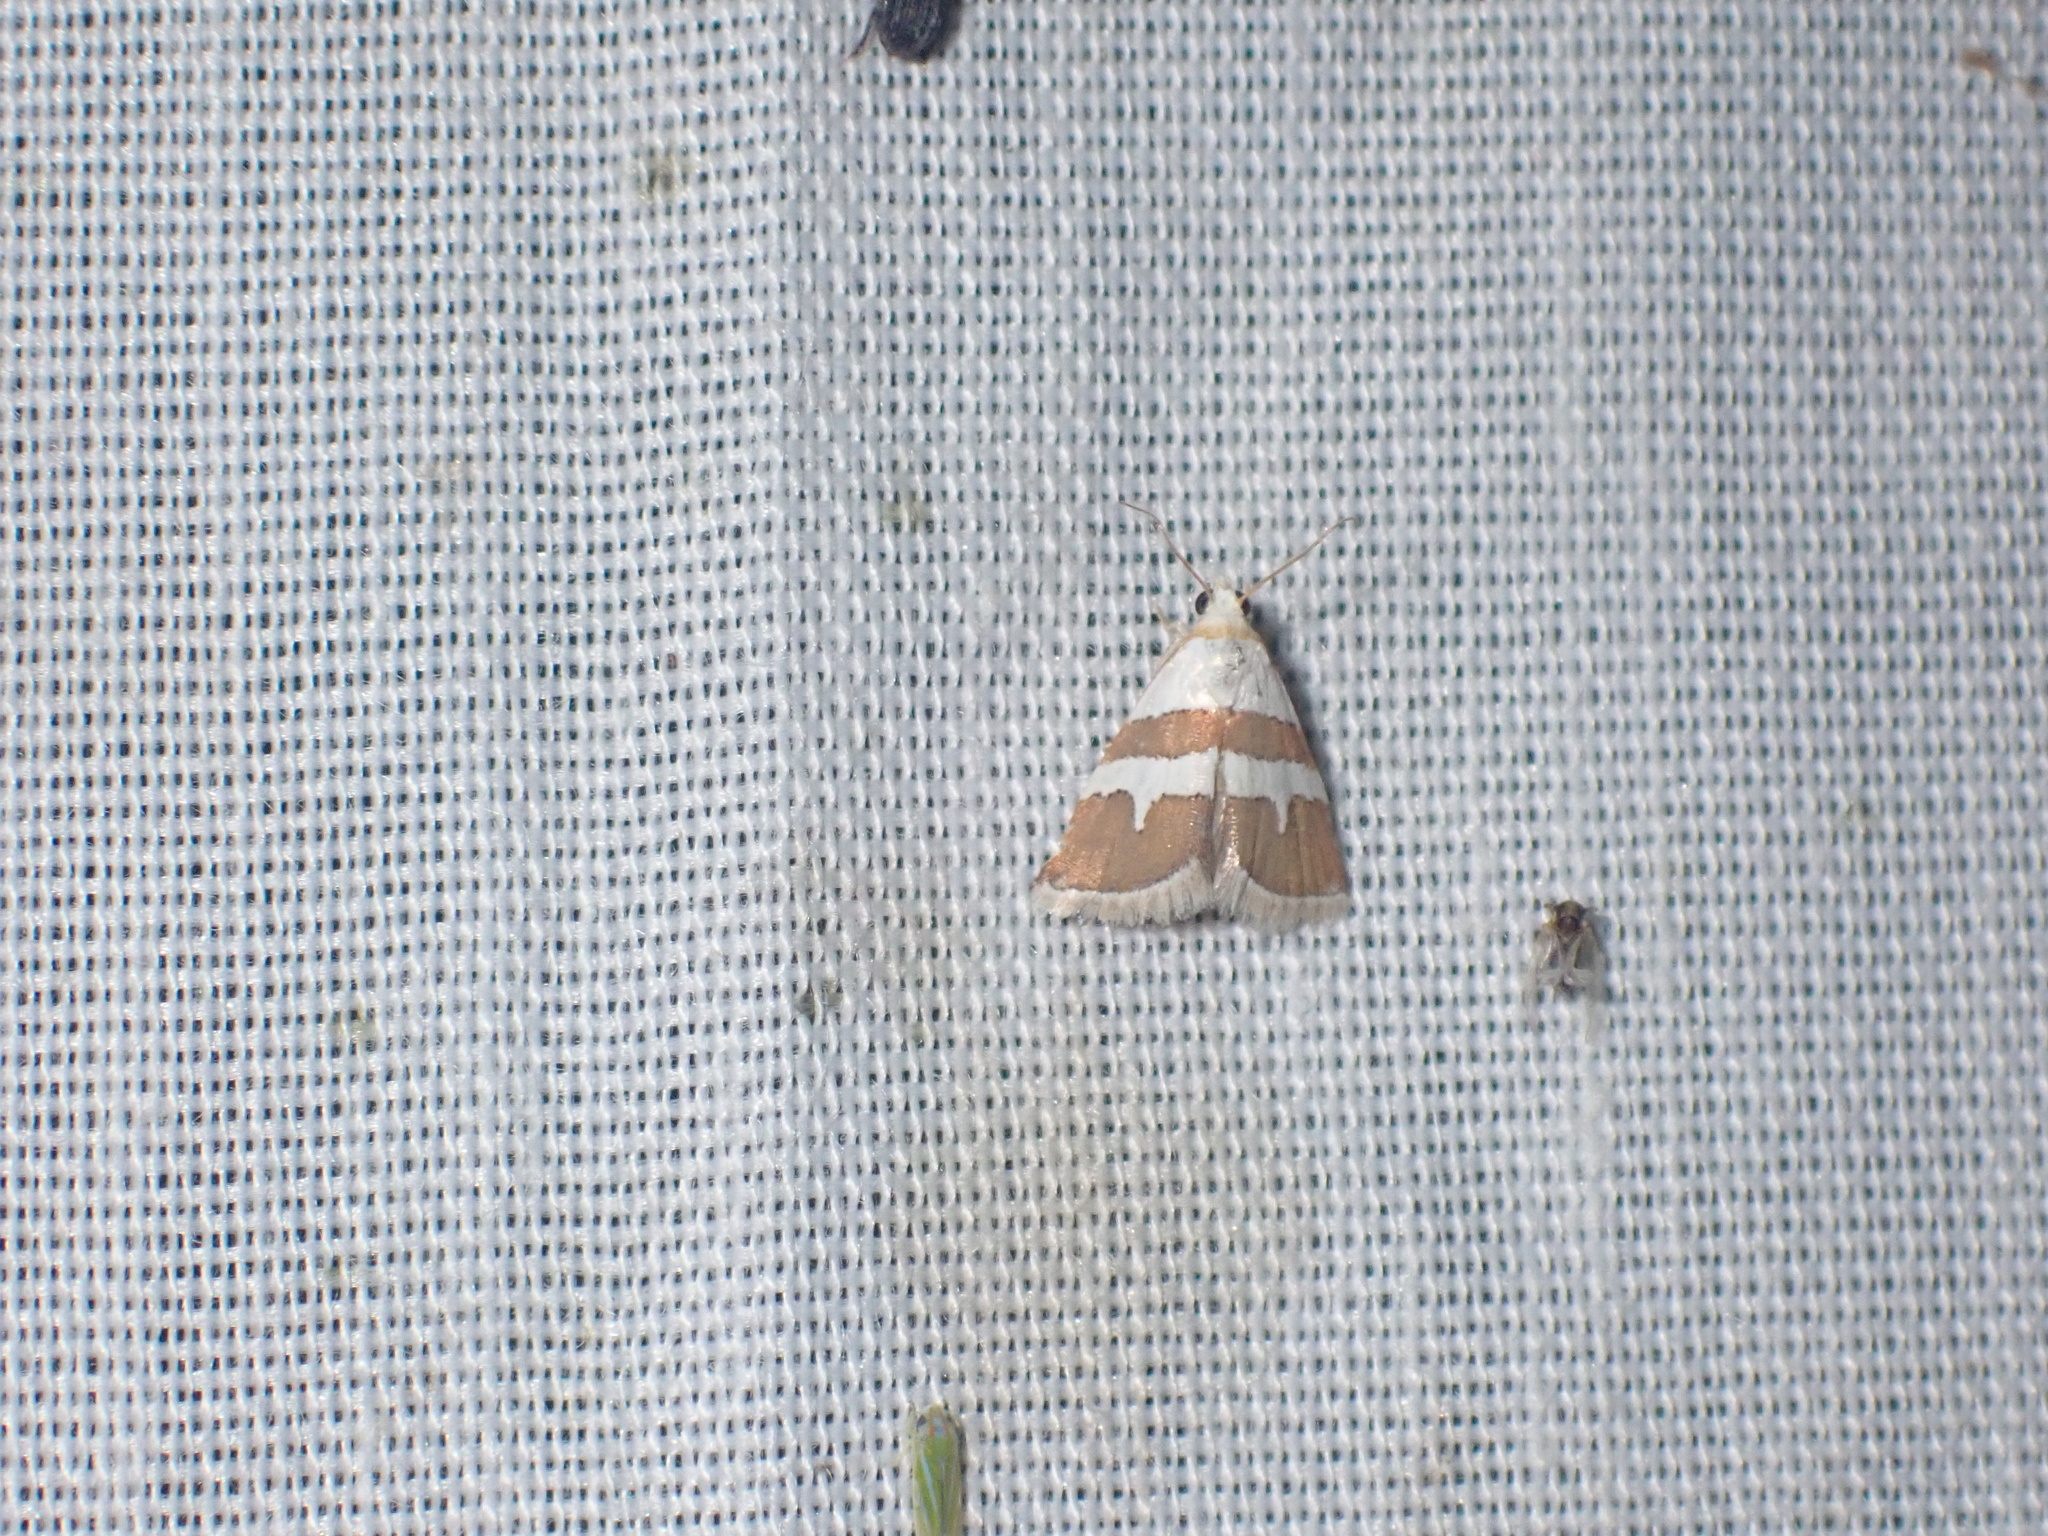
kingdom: Animalia
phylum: Arthropoda
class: Insecta
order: Lepidoptera
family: Noctuidae
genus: Eublemma
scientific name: Eublemma alexi
